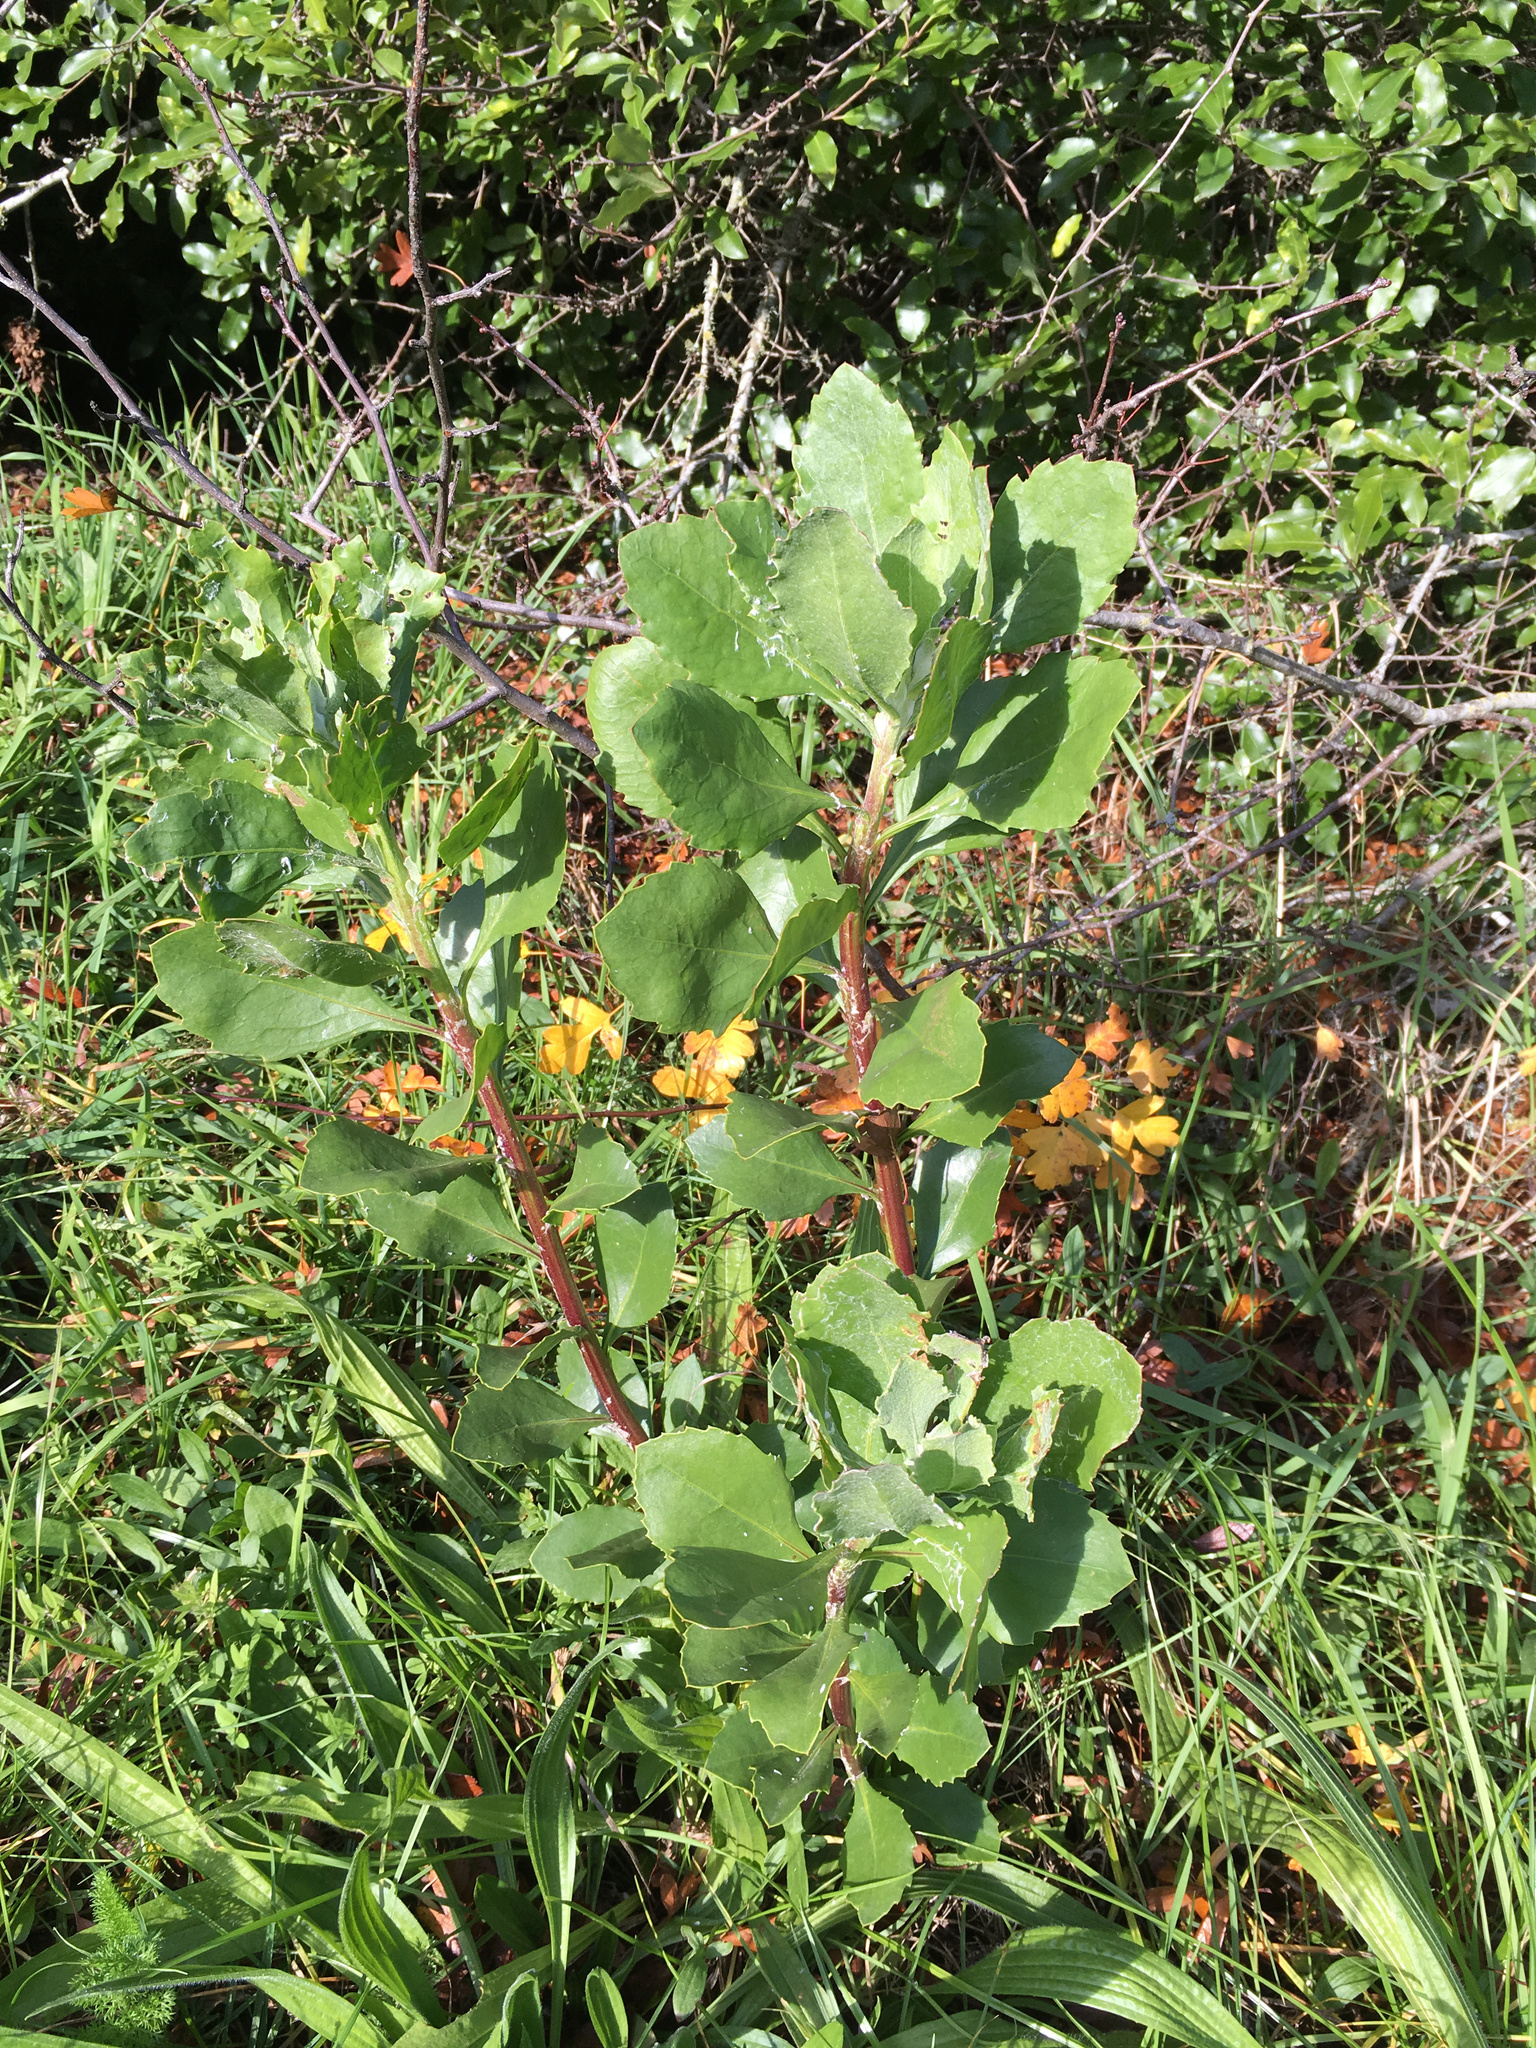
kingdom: Plantae
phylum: Tracheophyta
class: Magnoliopsida
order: Asterales
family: Asteraceae
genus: Osteospermum
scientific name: Osteospermum moniliferum
